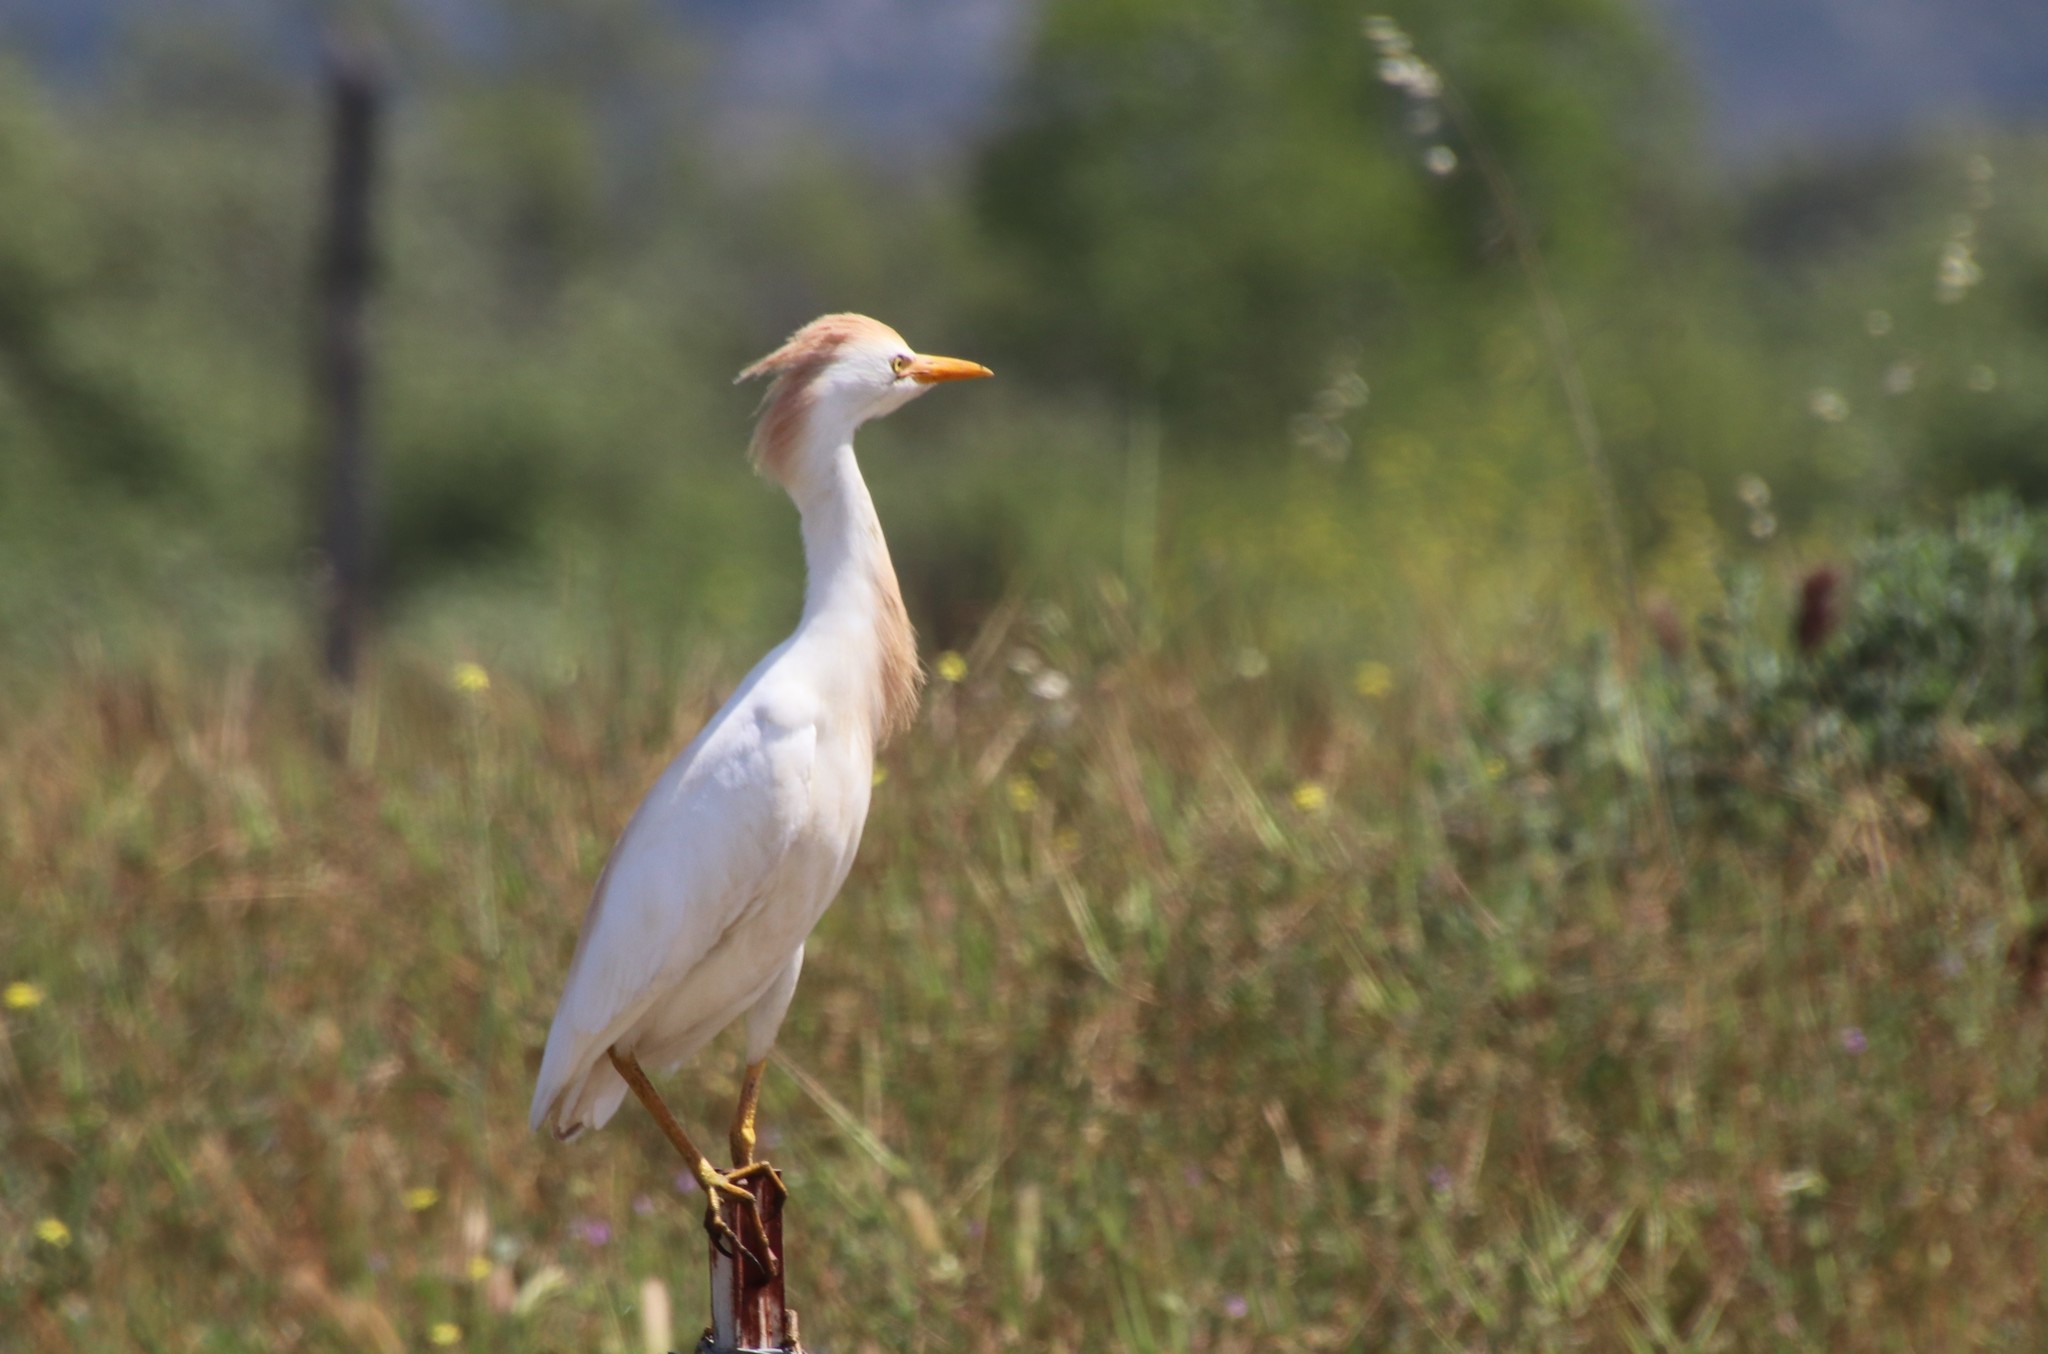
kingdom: Animalia
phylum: Chordata
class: Aves
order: Pelecaniformes
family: Ardeidae
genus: Bubulcus
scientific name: Bubulcus ibis
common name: Cattle egret
